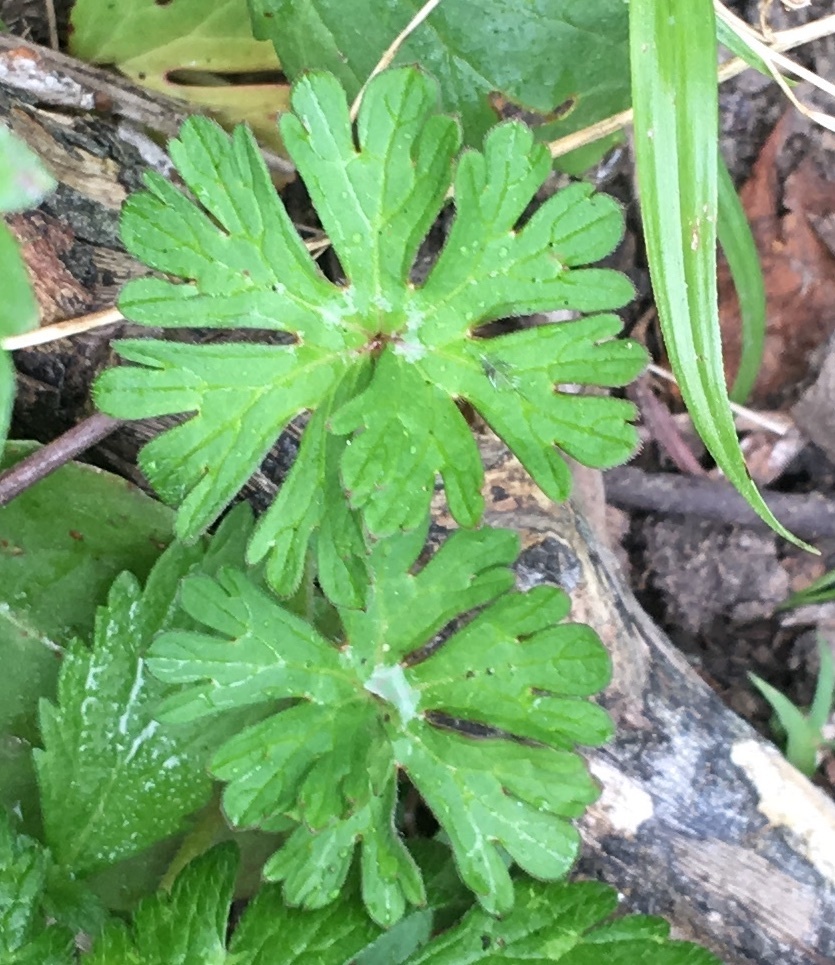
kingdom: Plantae
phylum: Tracheophyta
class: Magnoliopsida
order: Geraniales
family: Geraniaceae
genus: Geranium
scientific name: Geranium dissectum
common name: Cut-leaved crane's-bill
